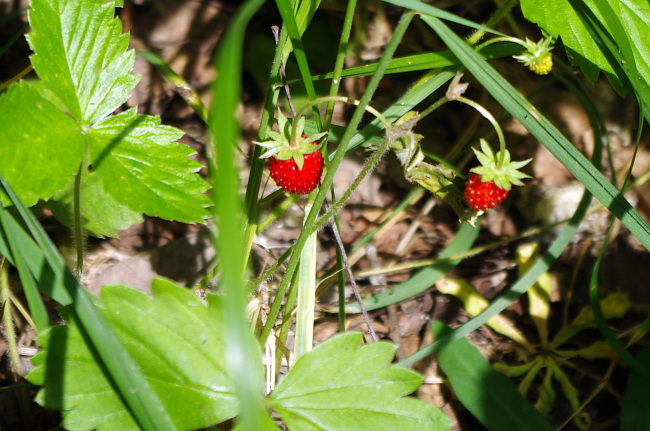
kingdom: Plantae
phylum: Tracheophyta
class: Magnoliopsida
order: Rosales
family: Rosaceae
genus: Fragaria
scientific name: Fragaria vesca
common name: Wild strawberry
